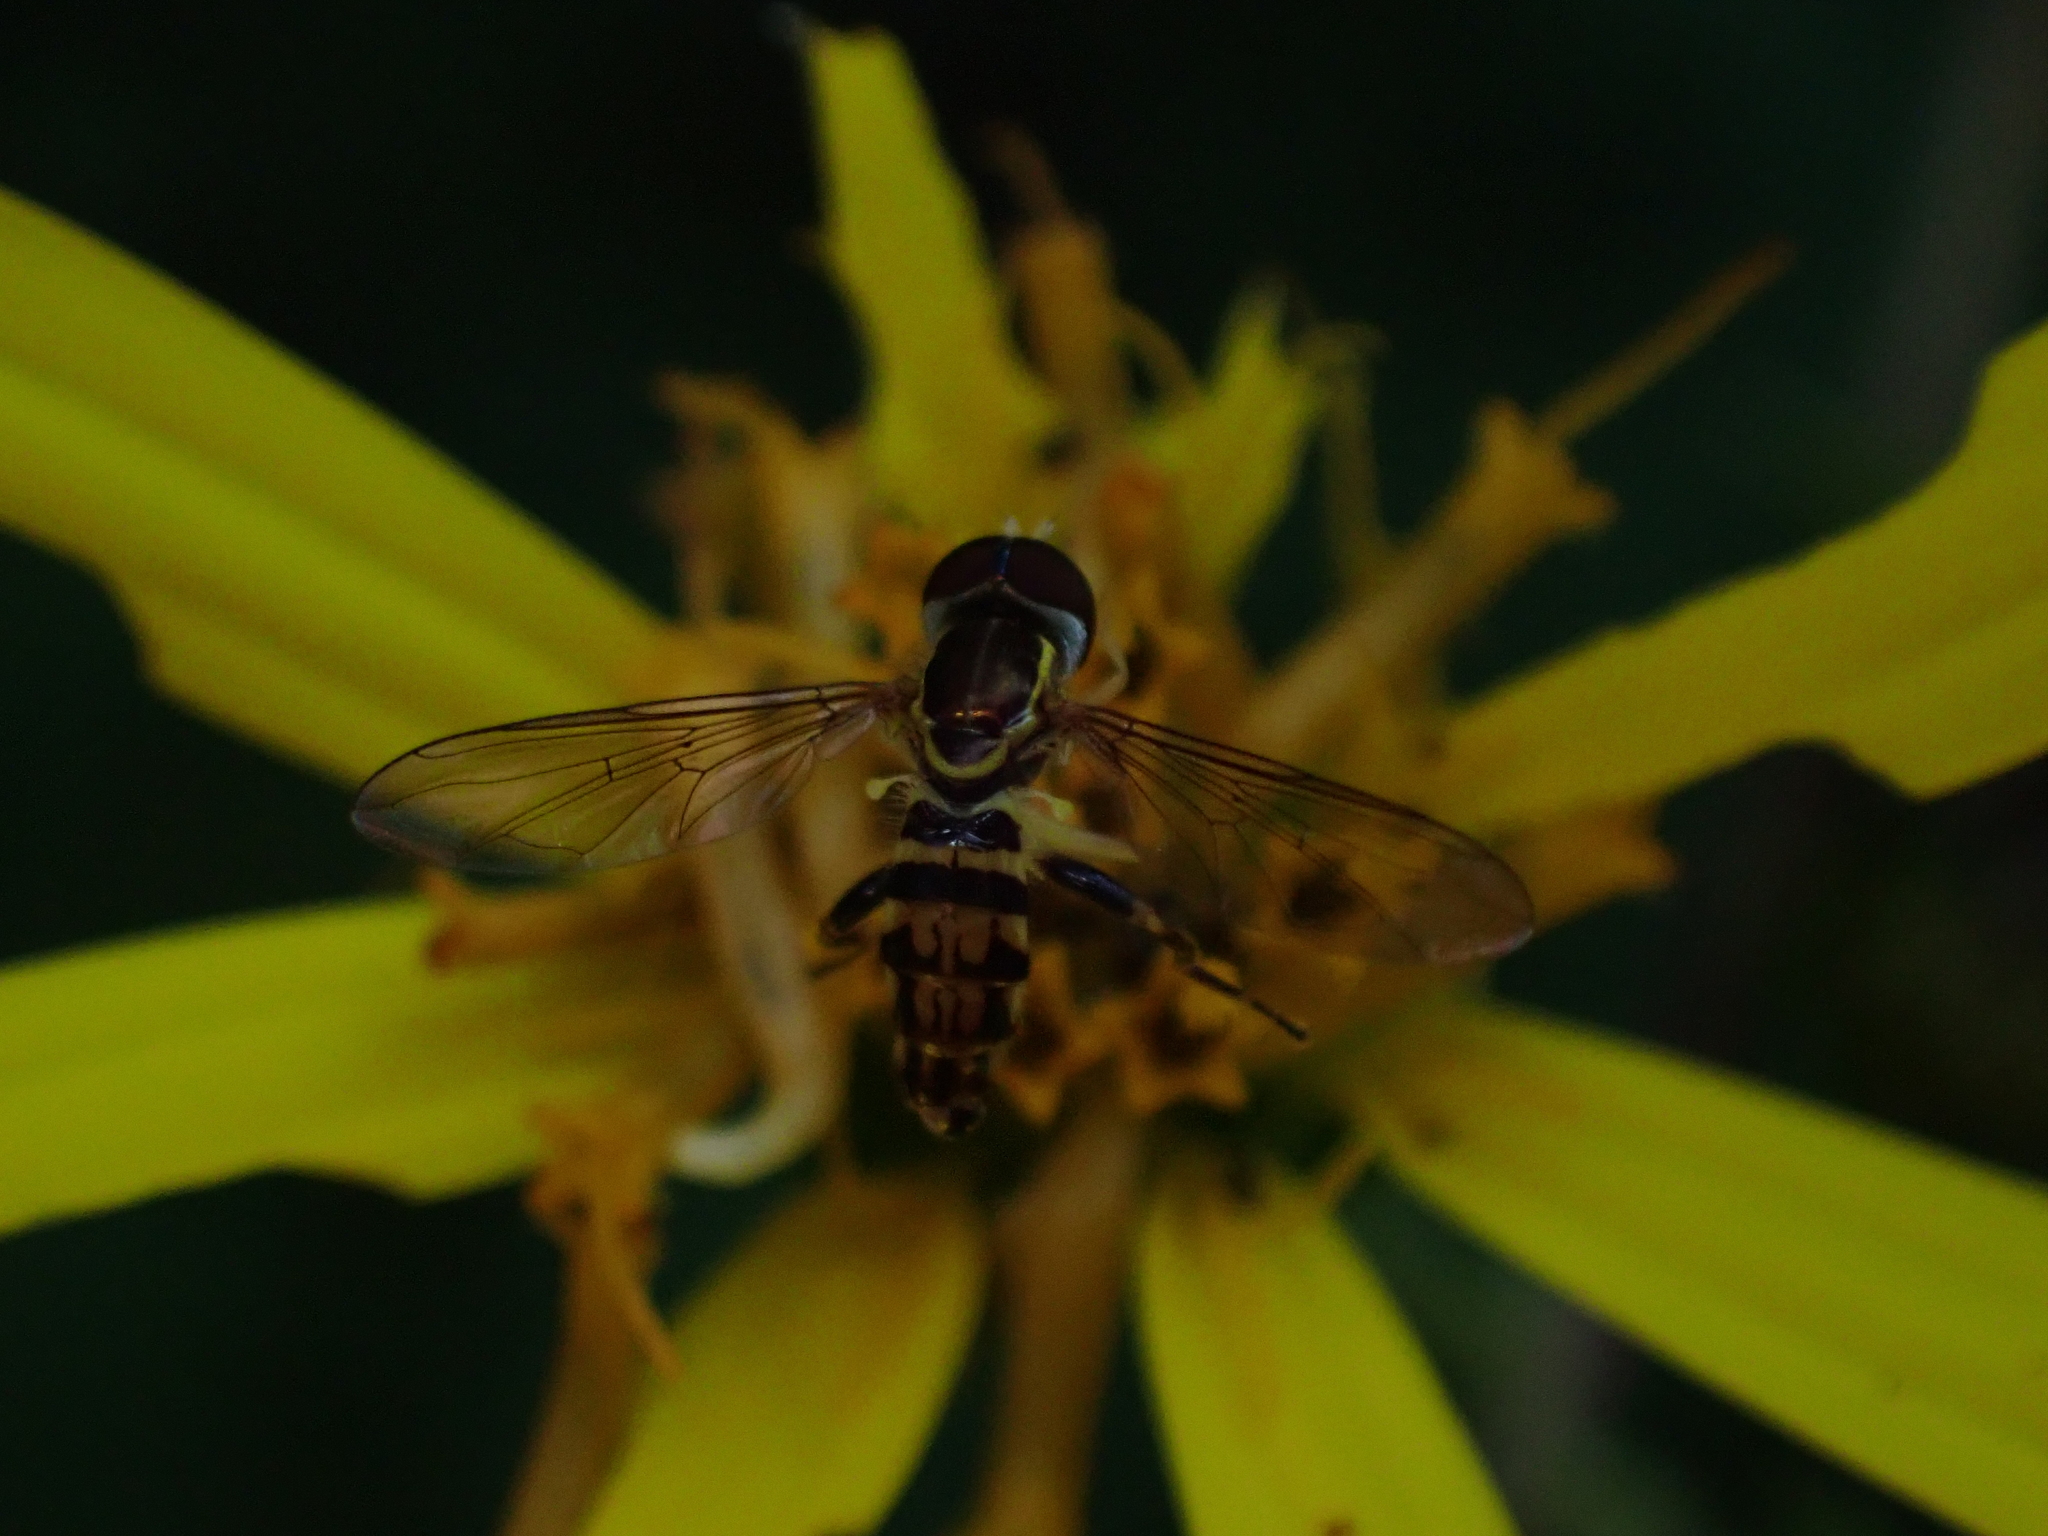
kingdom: Animalia
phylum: Arthropoda
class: Insecta
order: Diptera
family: Syrphidae
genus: Toxomerus
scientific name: Toxomerus geminatus
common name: Eastern calligrapher
